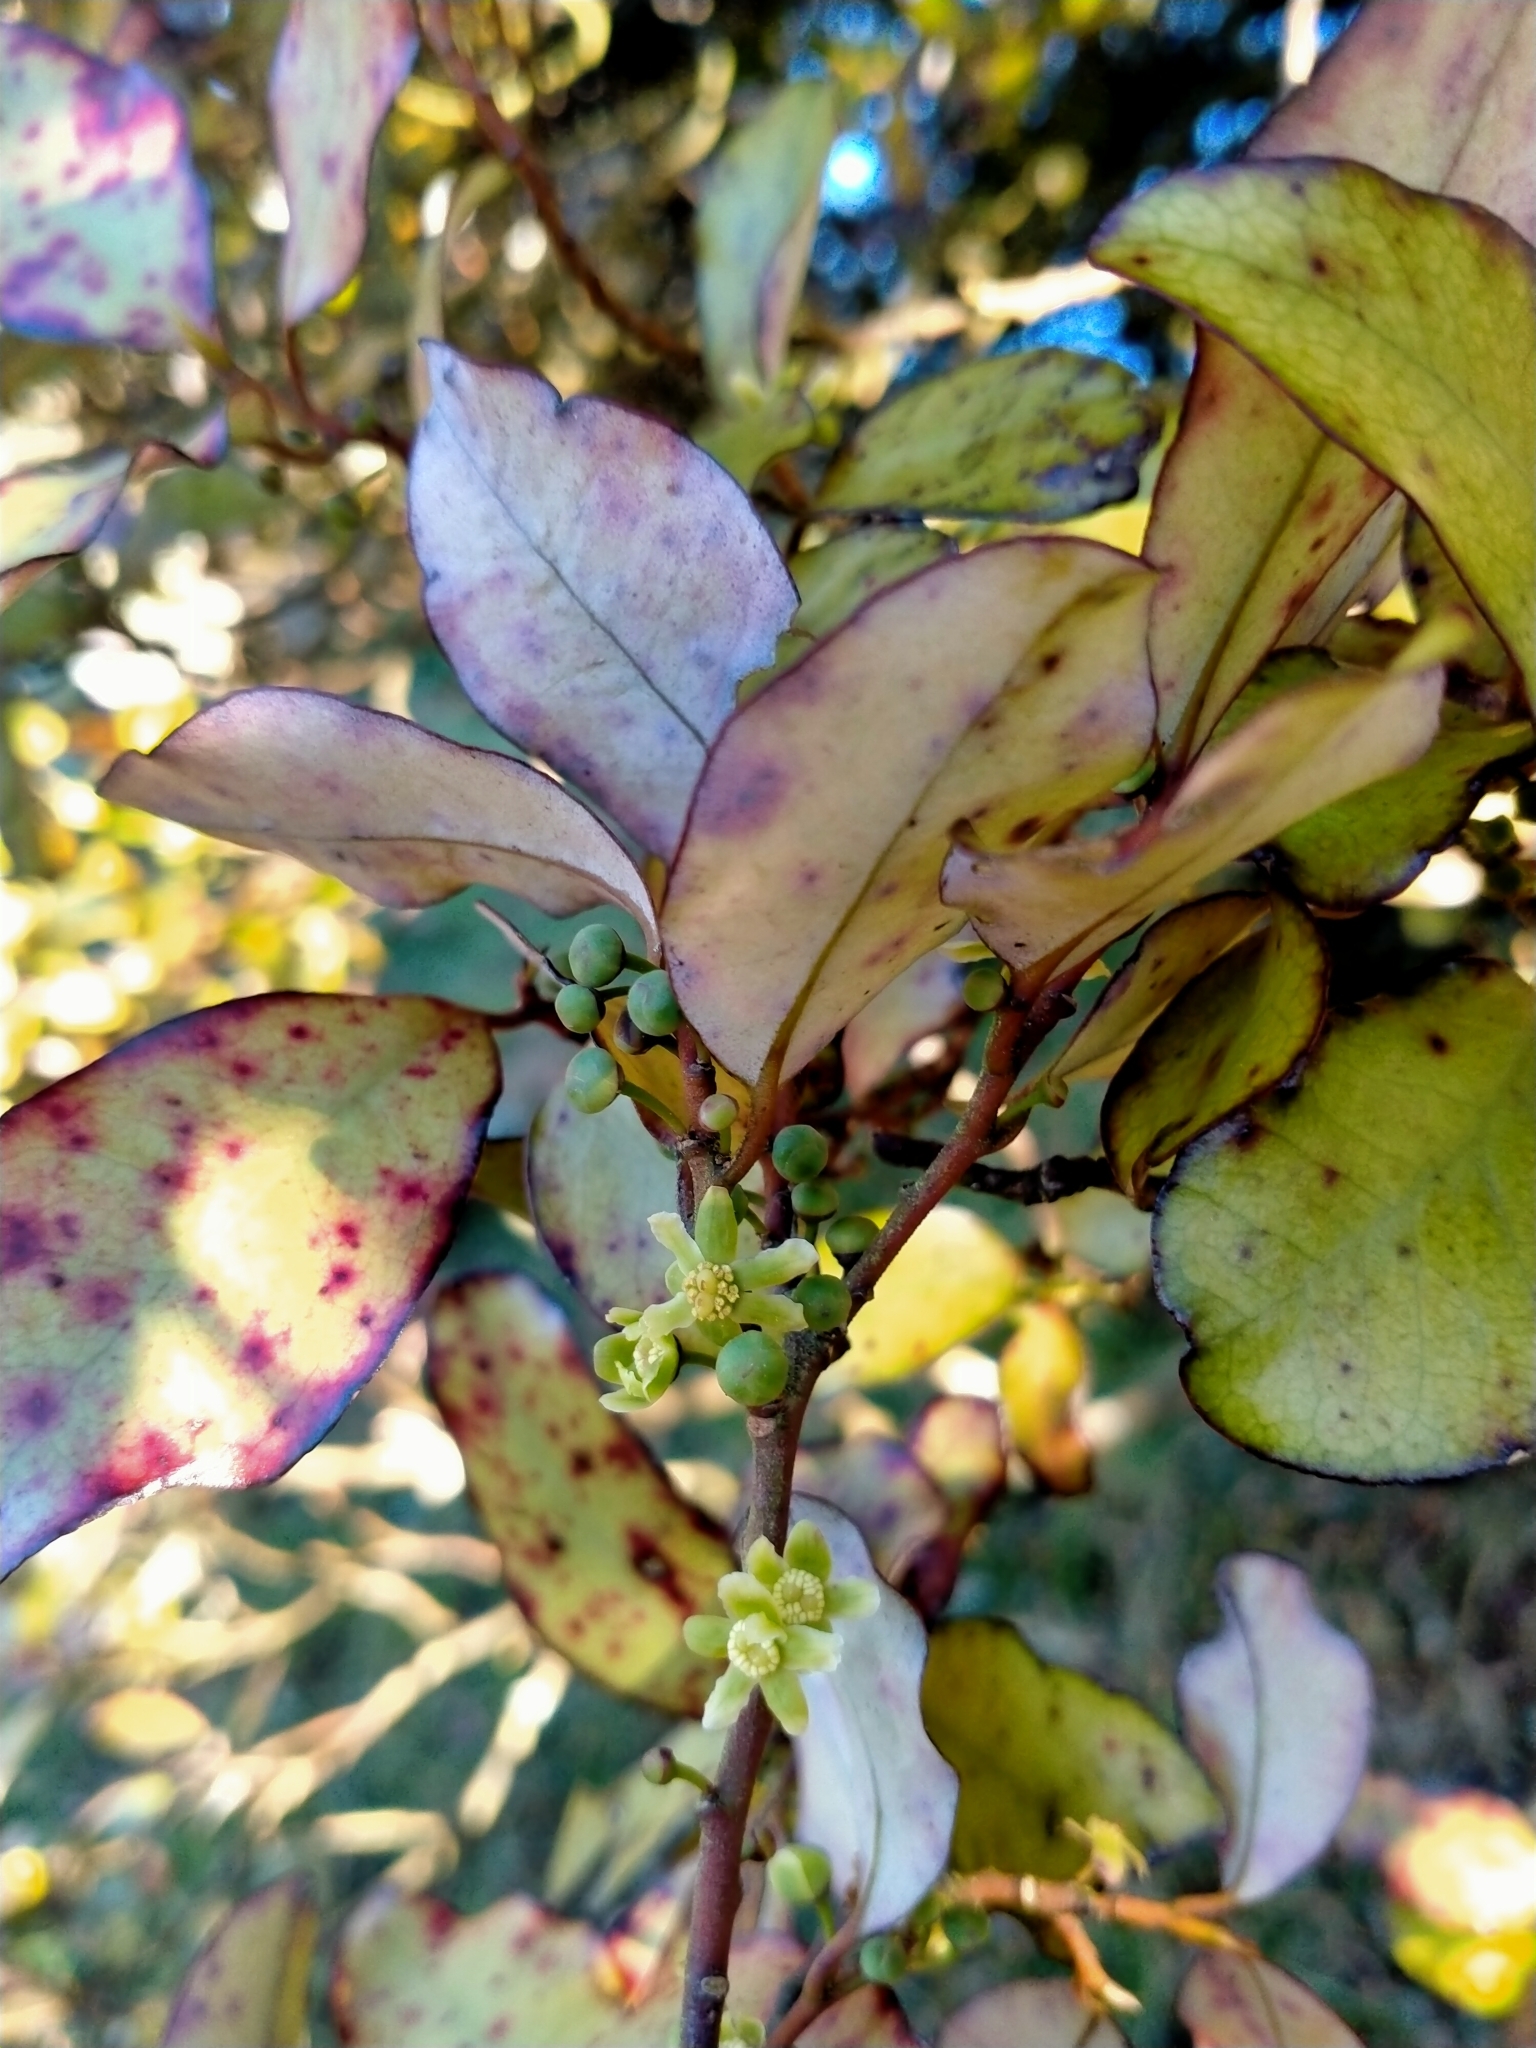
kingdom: Plantae
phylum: Tracheophyta
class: Magnoliopsida
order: Canellales
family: Winteraceae
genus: Pseudowintera
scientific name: Pseudowintera colorata
